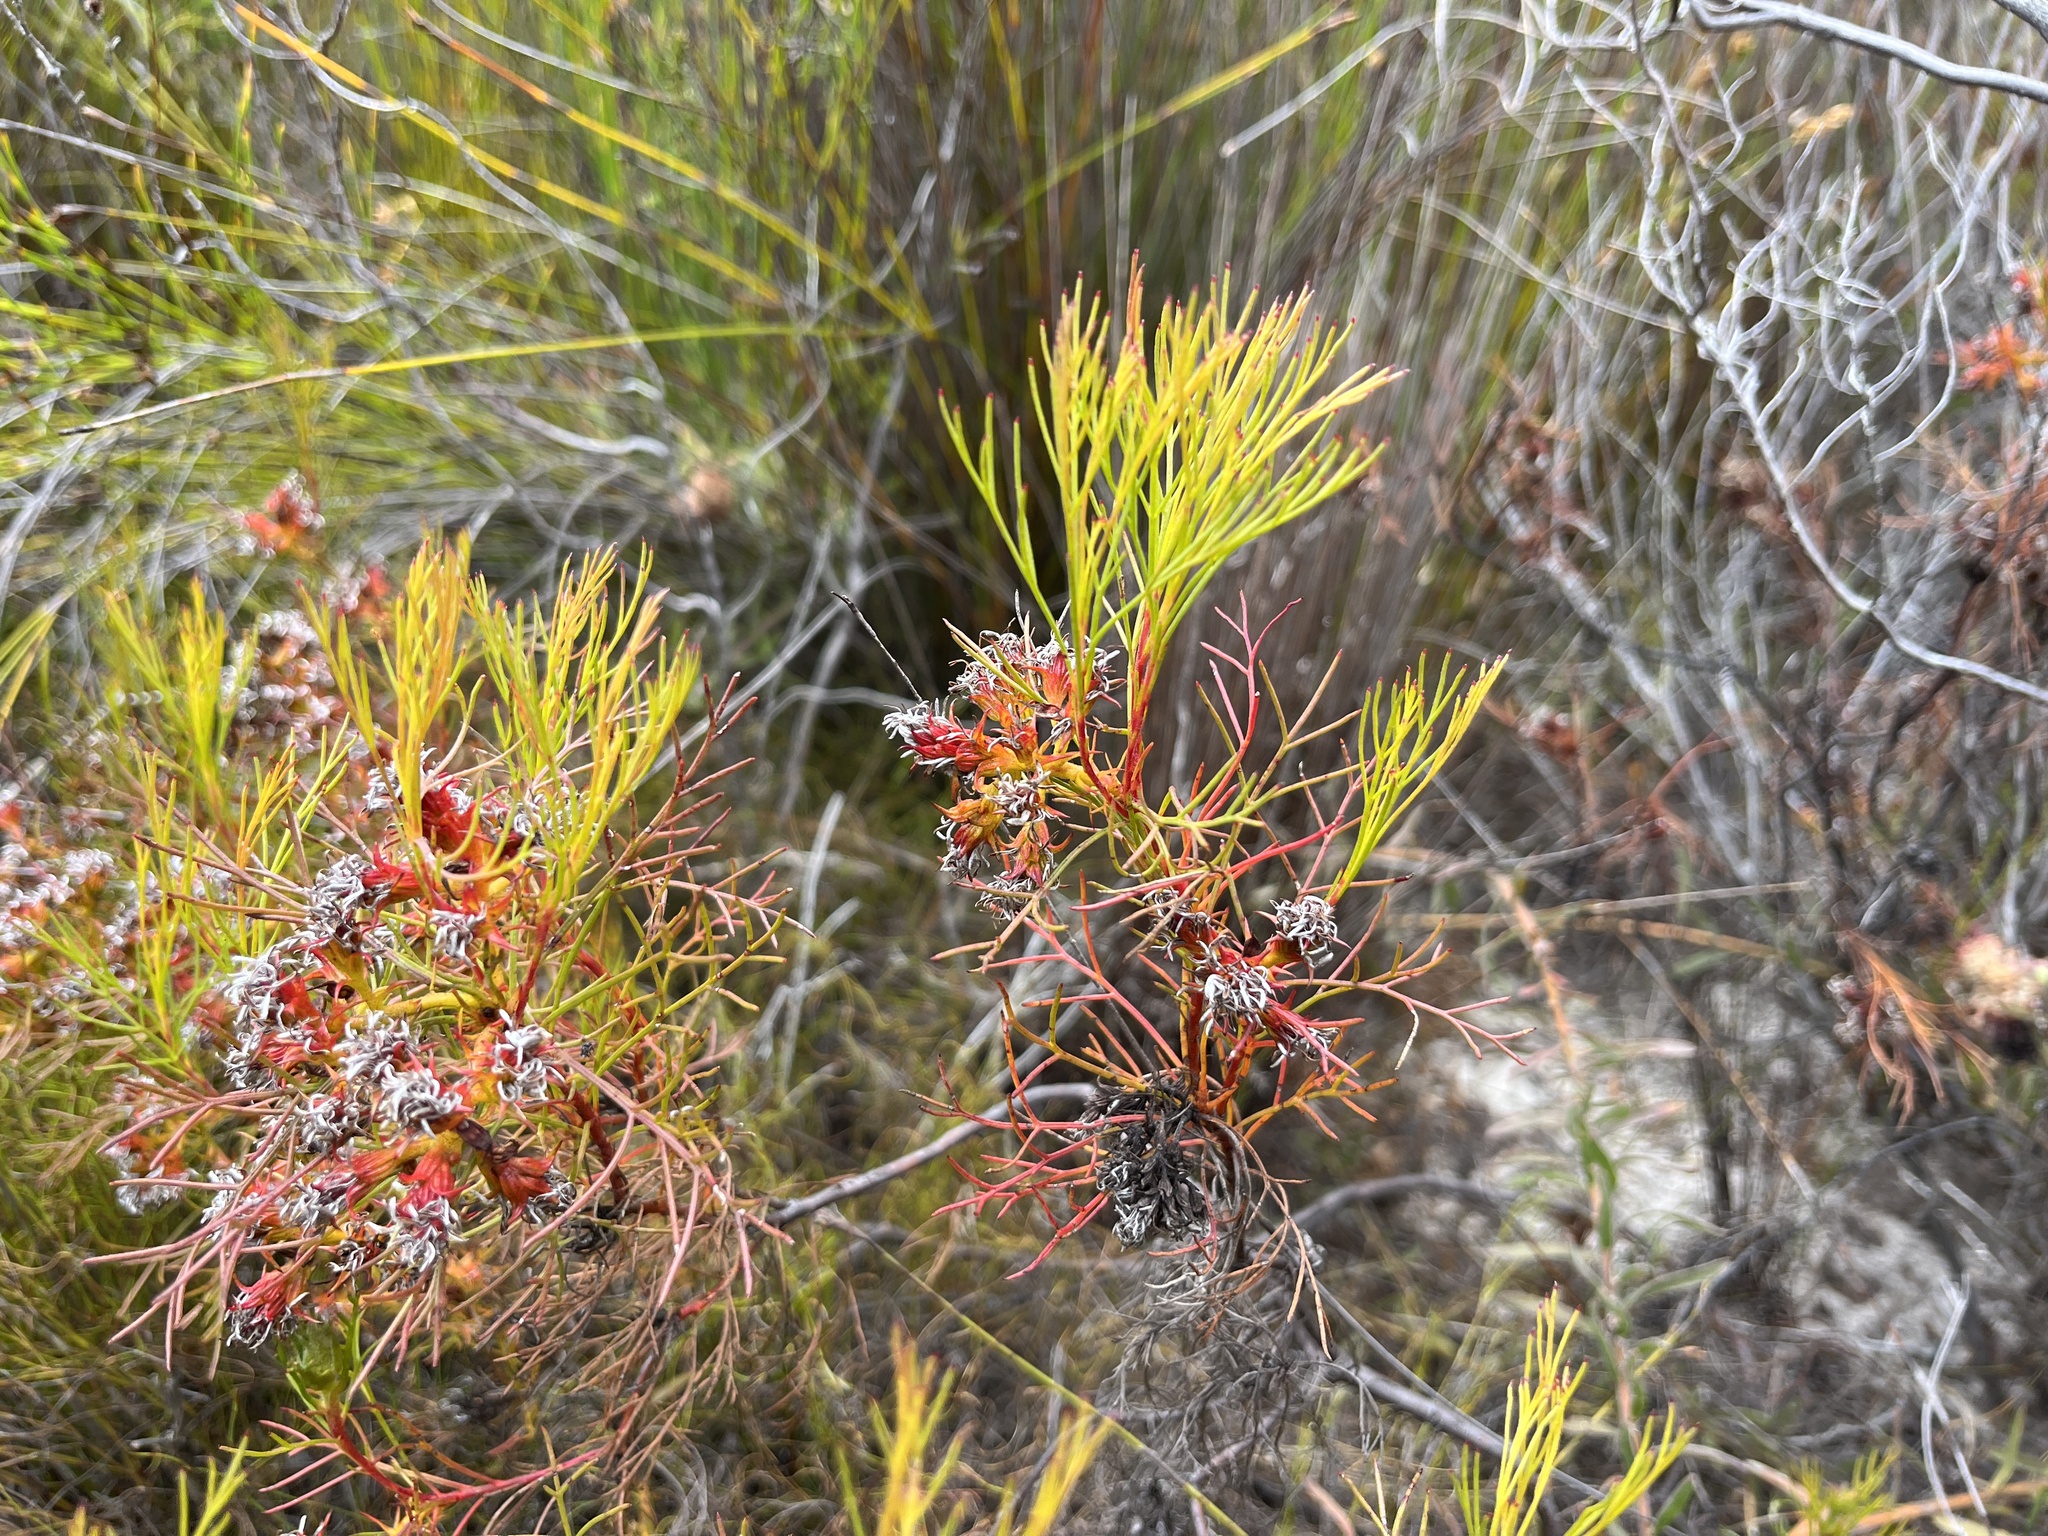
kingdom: Plantae
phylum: Tracheophyta
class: Magnoliopsida
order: Proteales
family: Proteaceae
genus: Serruria
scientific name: Serruria bolusii
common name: Agulhas spiderhead
